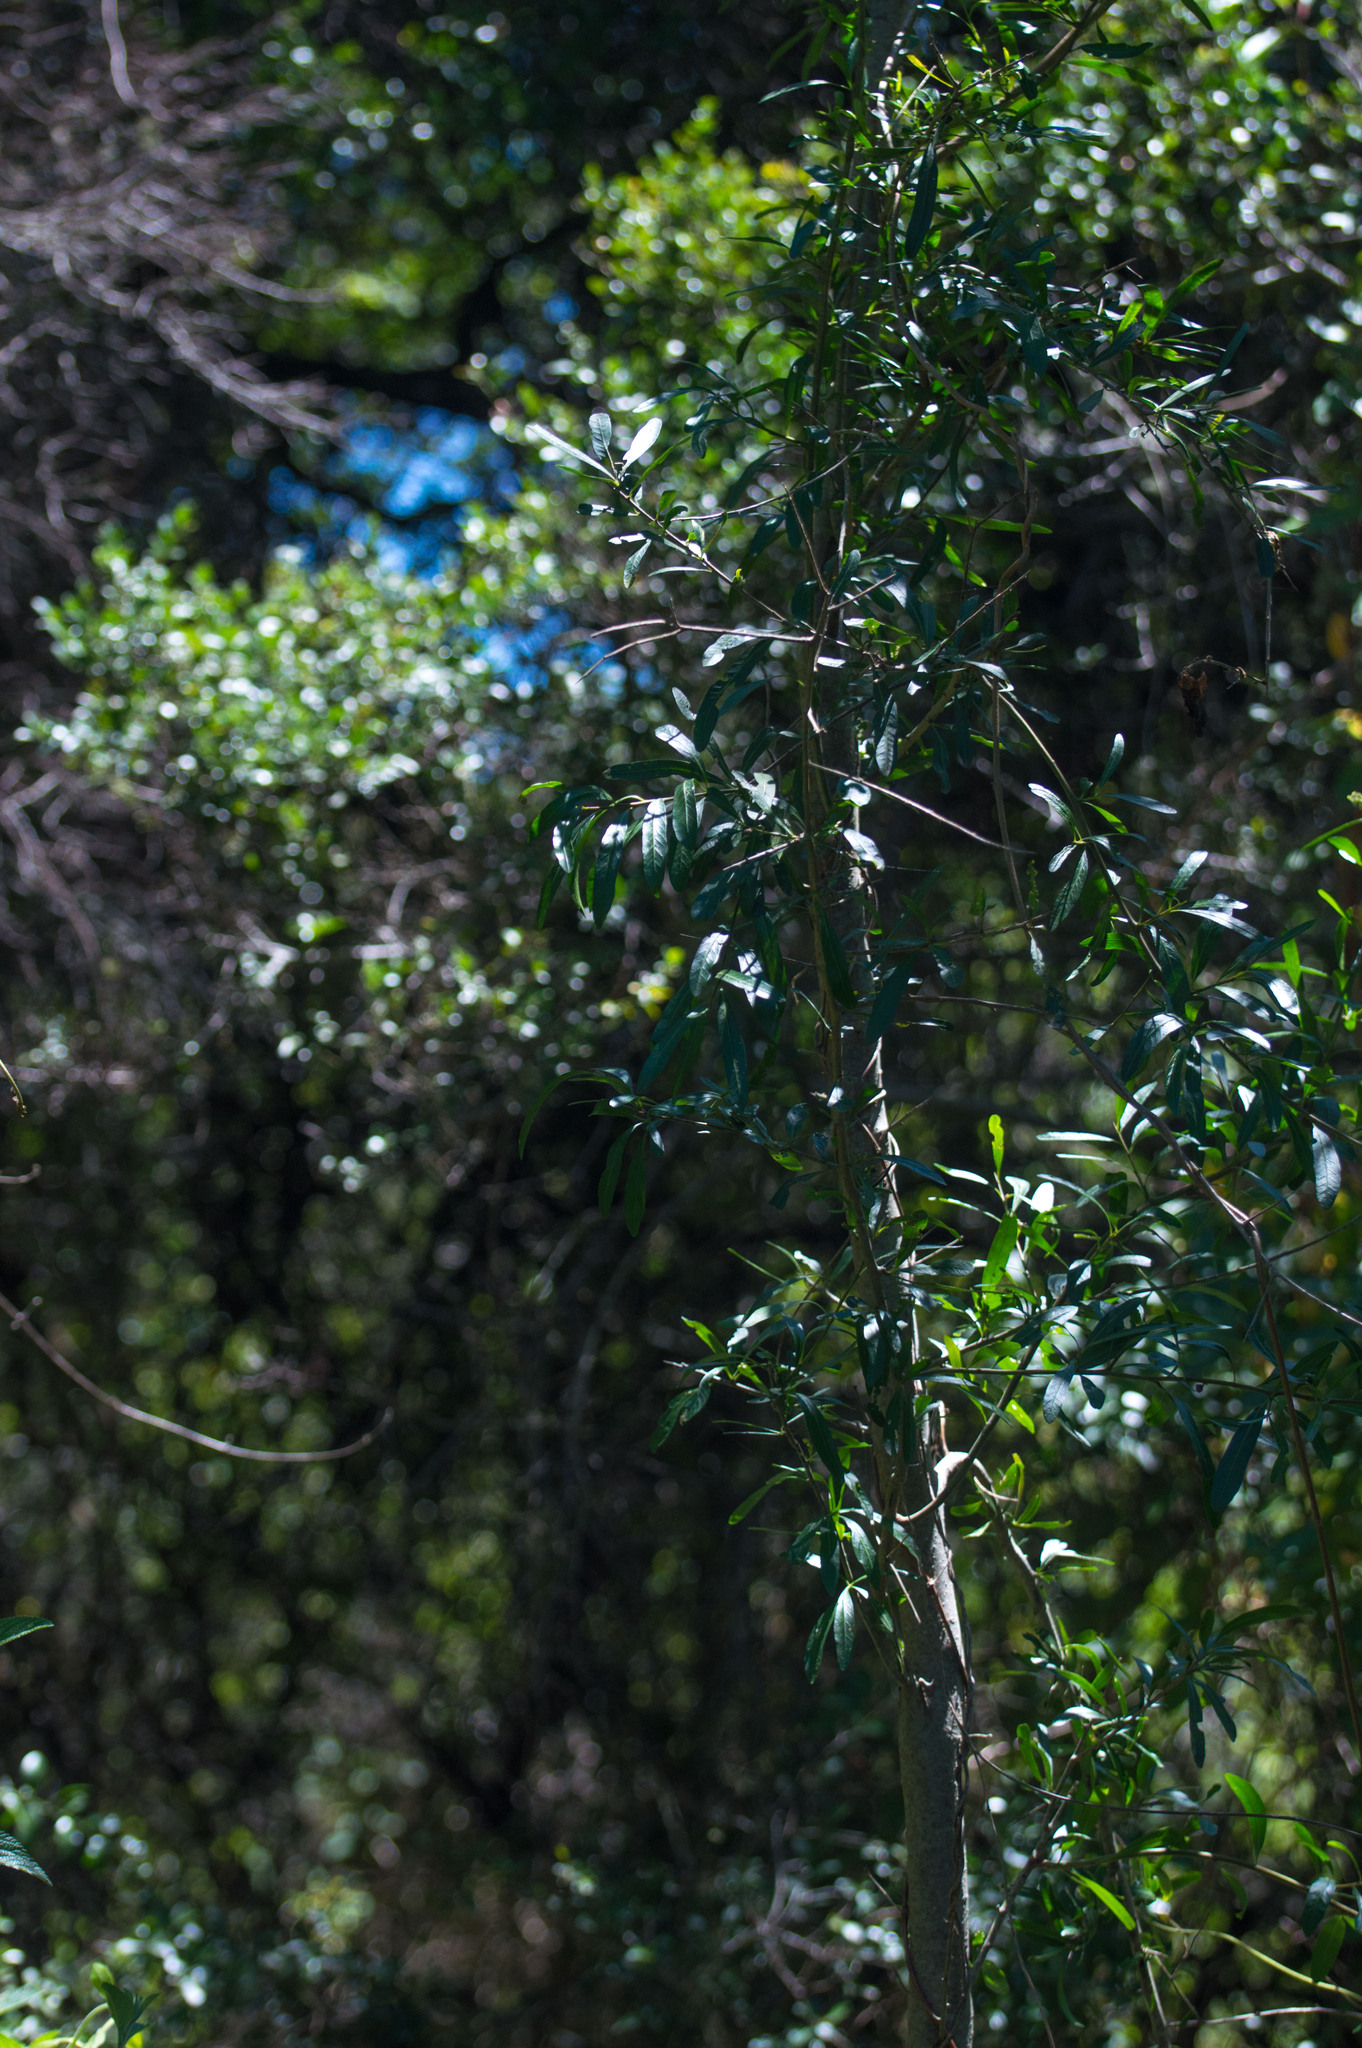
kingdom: Plantae
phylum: Tracheophyta
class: Magnoliopsida
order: Sapindales
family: Anacardiaceae
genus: Schinus
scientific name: Schinus longifolia
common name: Longleaf peppertree
